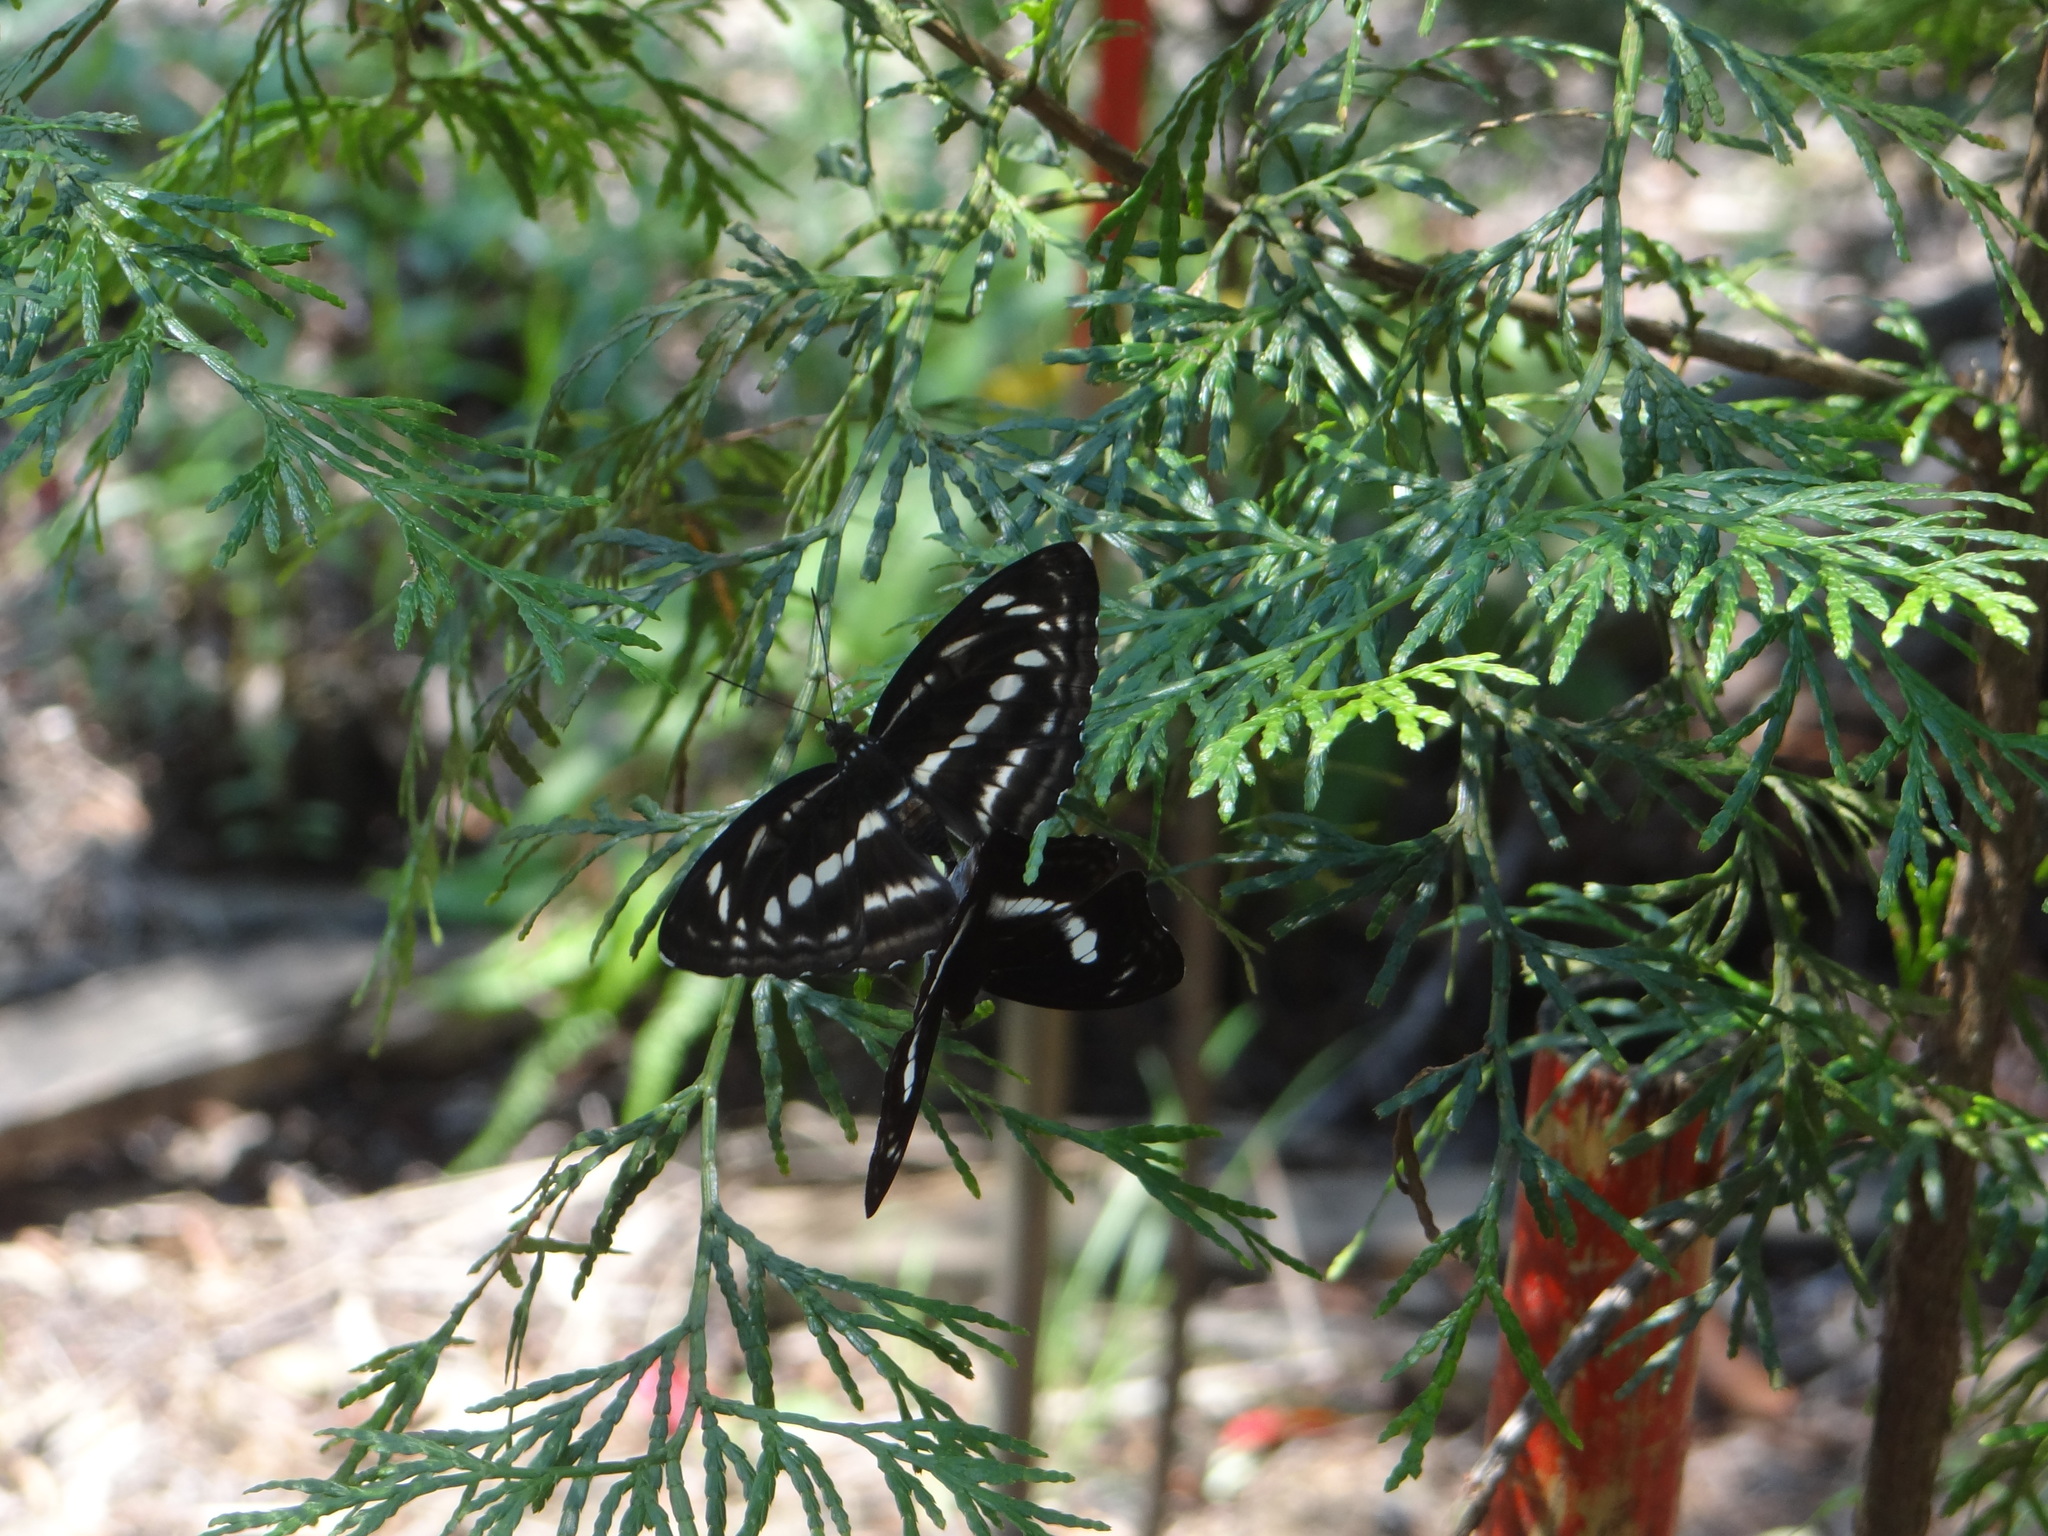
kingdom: Animalia
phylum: Arthropoda
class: Insecta
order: Lepidoptera
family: Nymphalidae
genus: Neptis
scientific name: Neptis nata
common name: Sullied brown sailer
